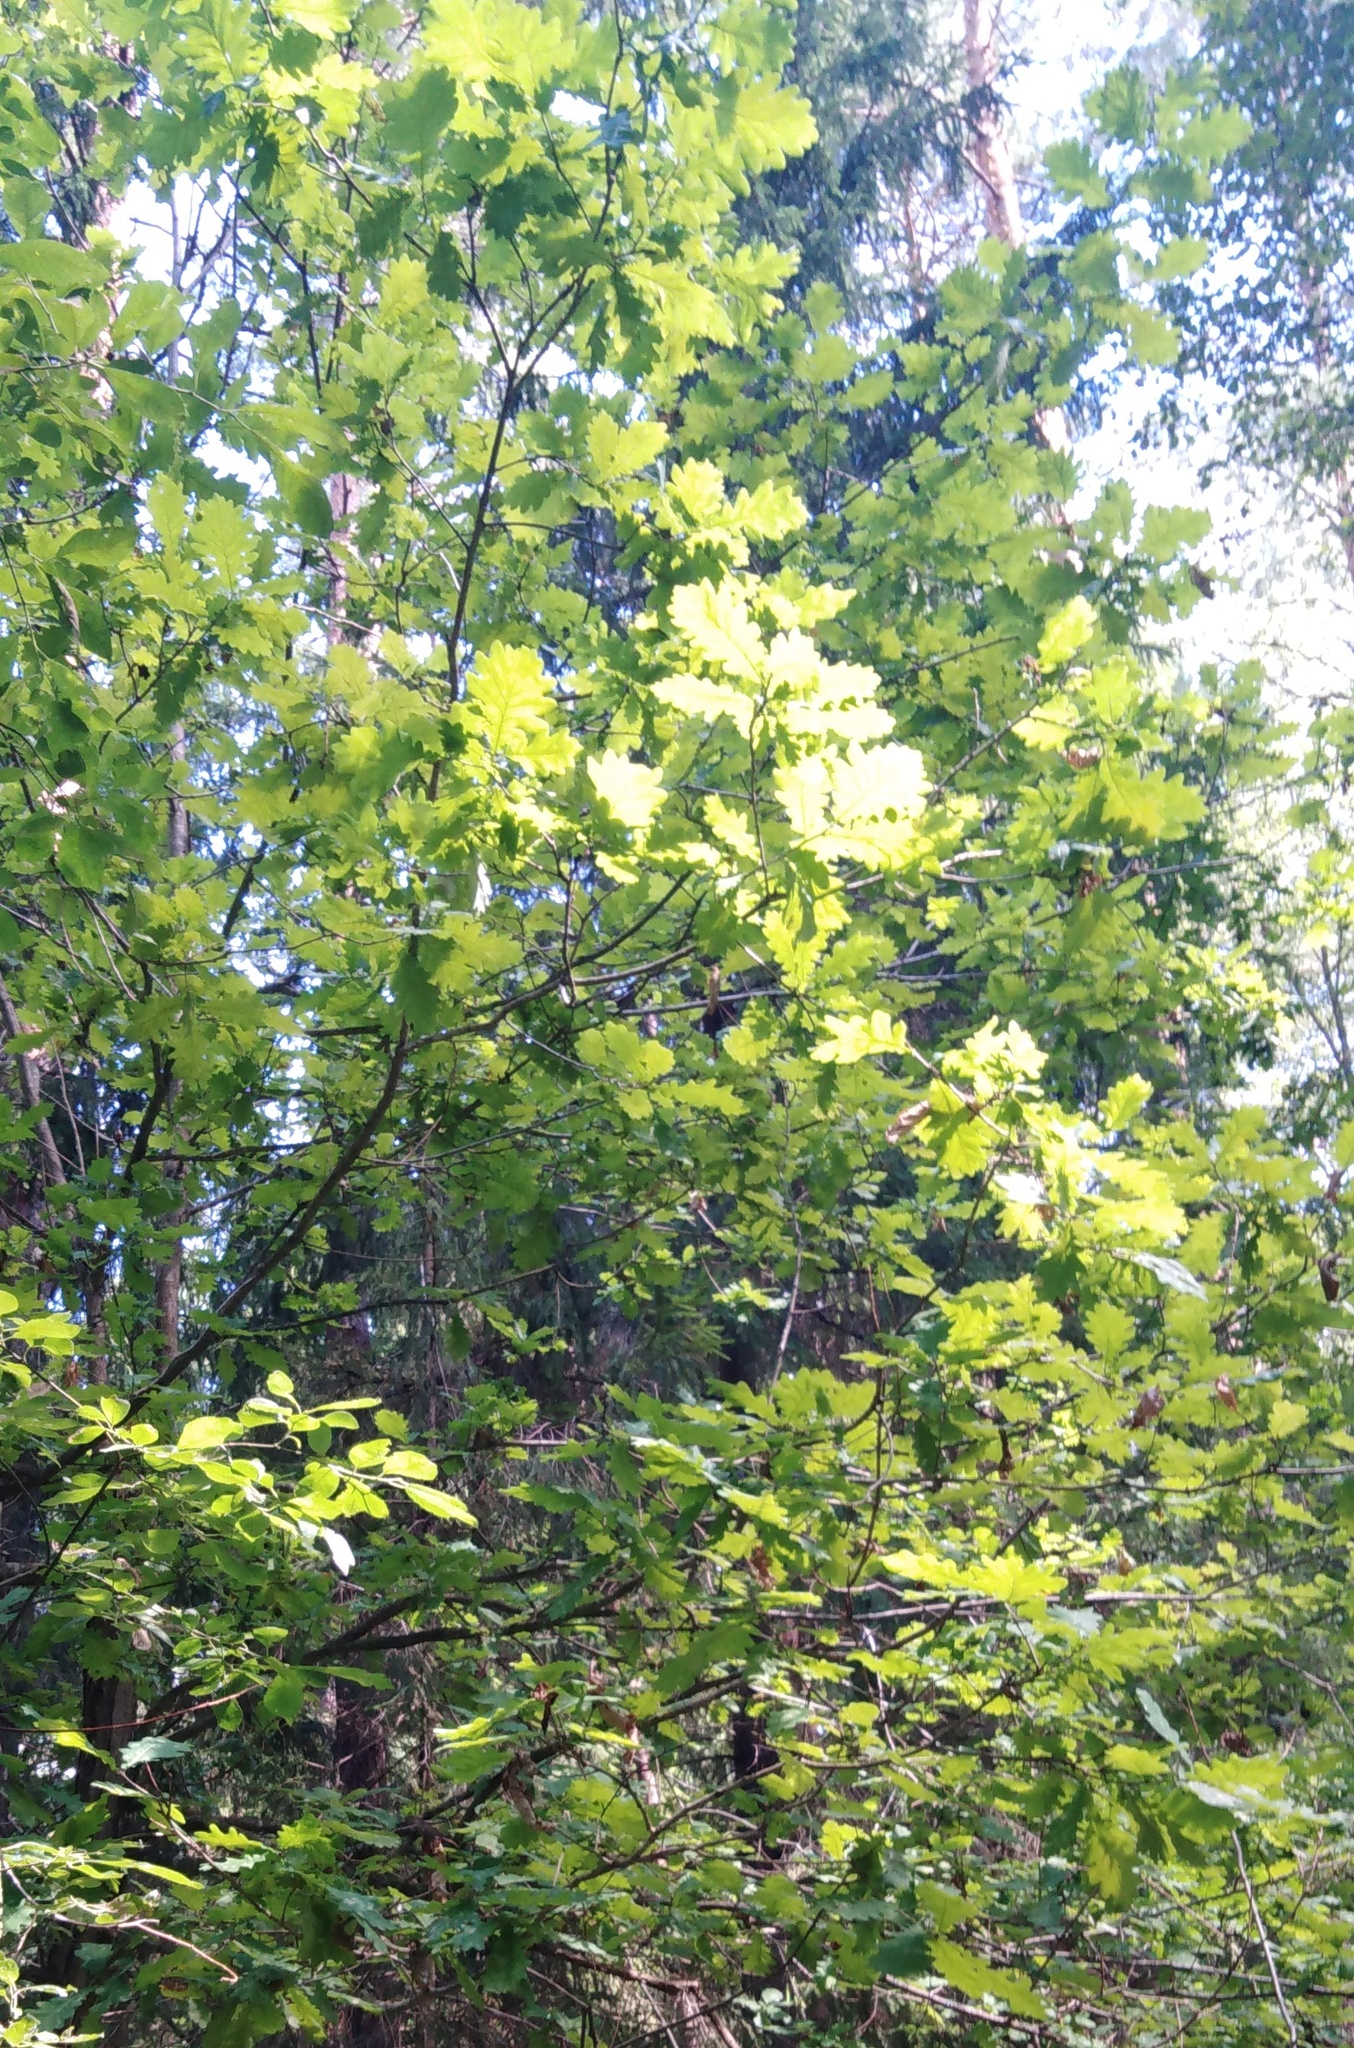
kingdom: Plantae
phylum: Tracheophyta
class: Magnoliopsida
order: Fagales
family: Fagaceae
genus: Quercus
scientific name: Quercus robur
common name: Pedunculate oak
